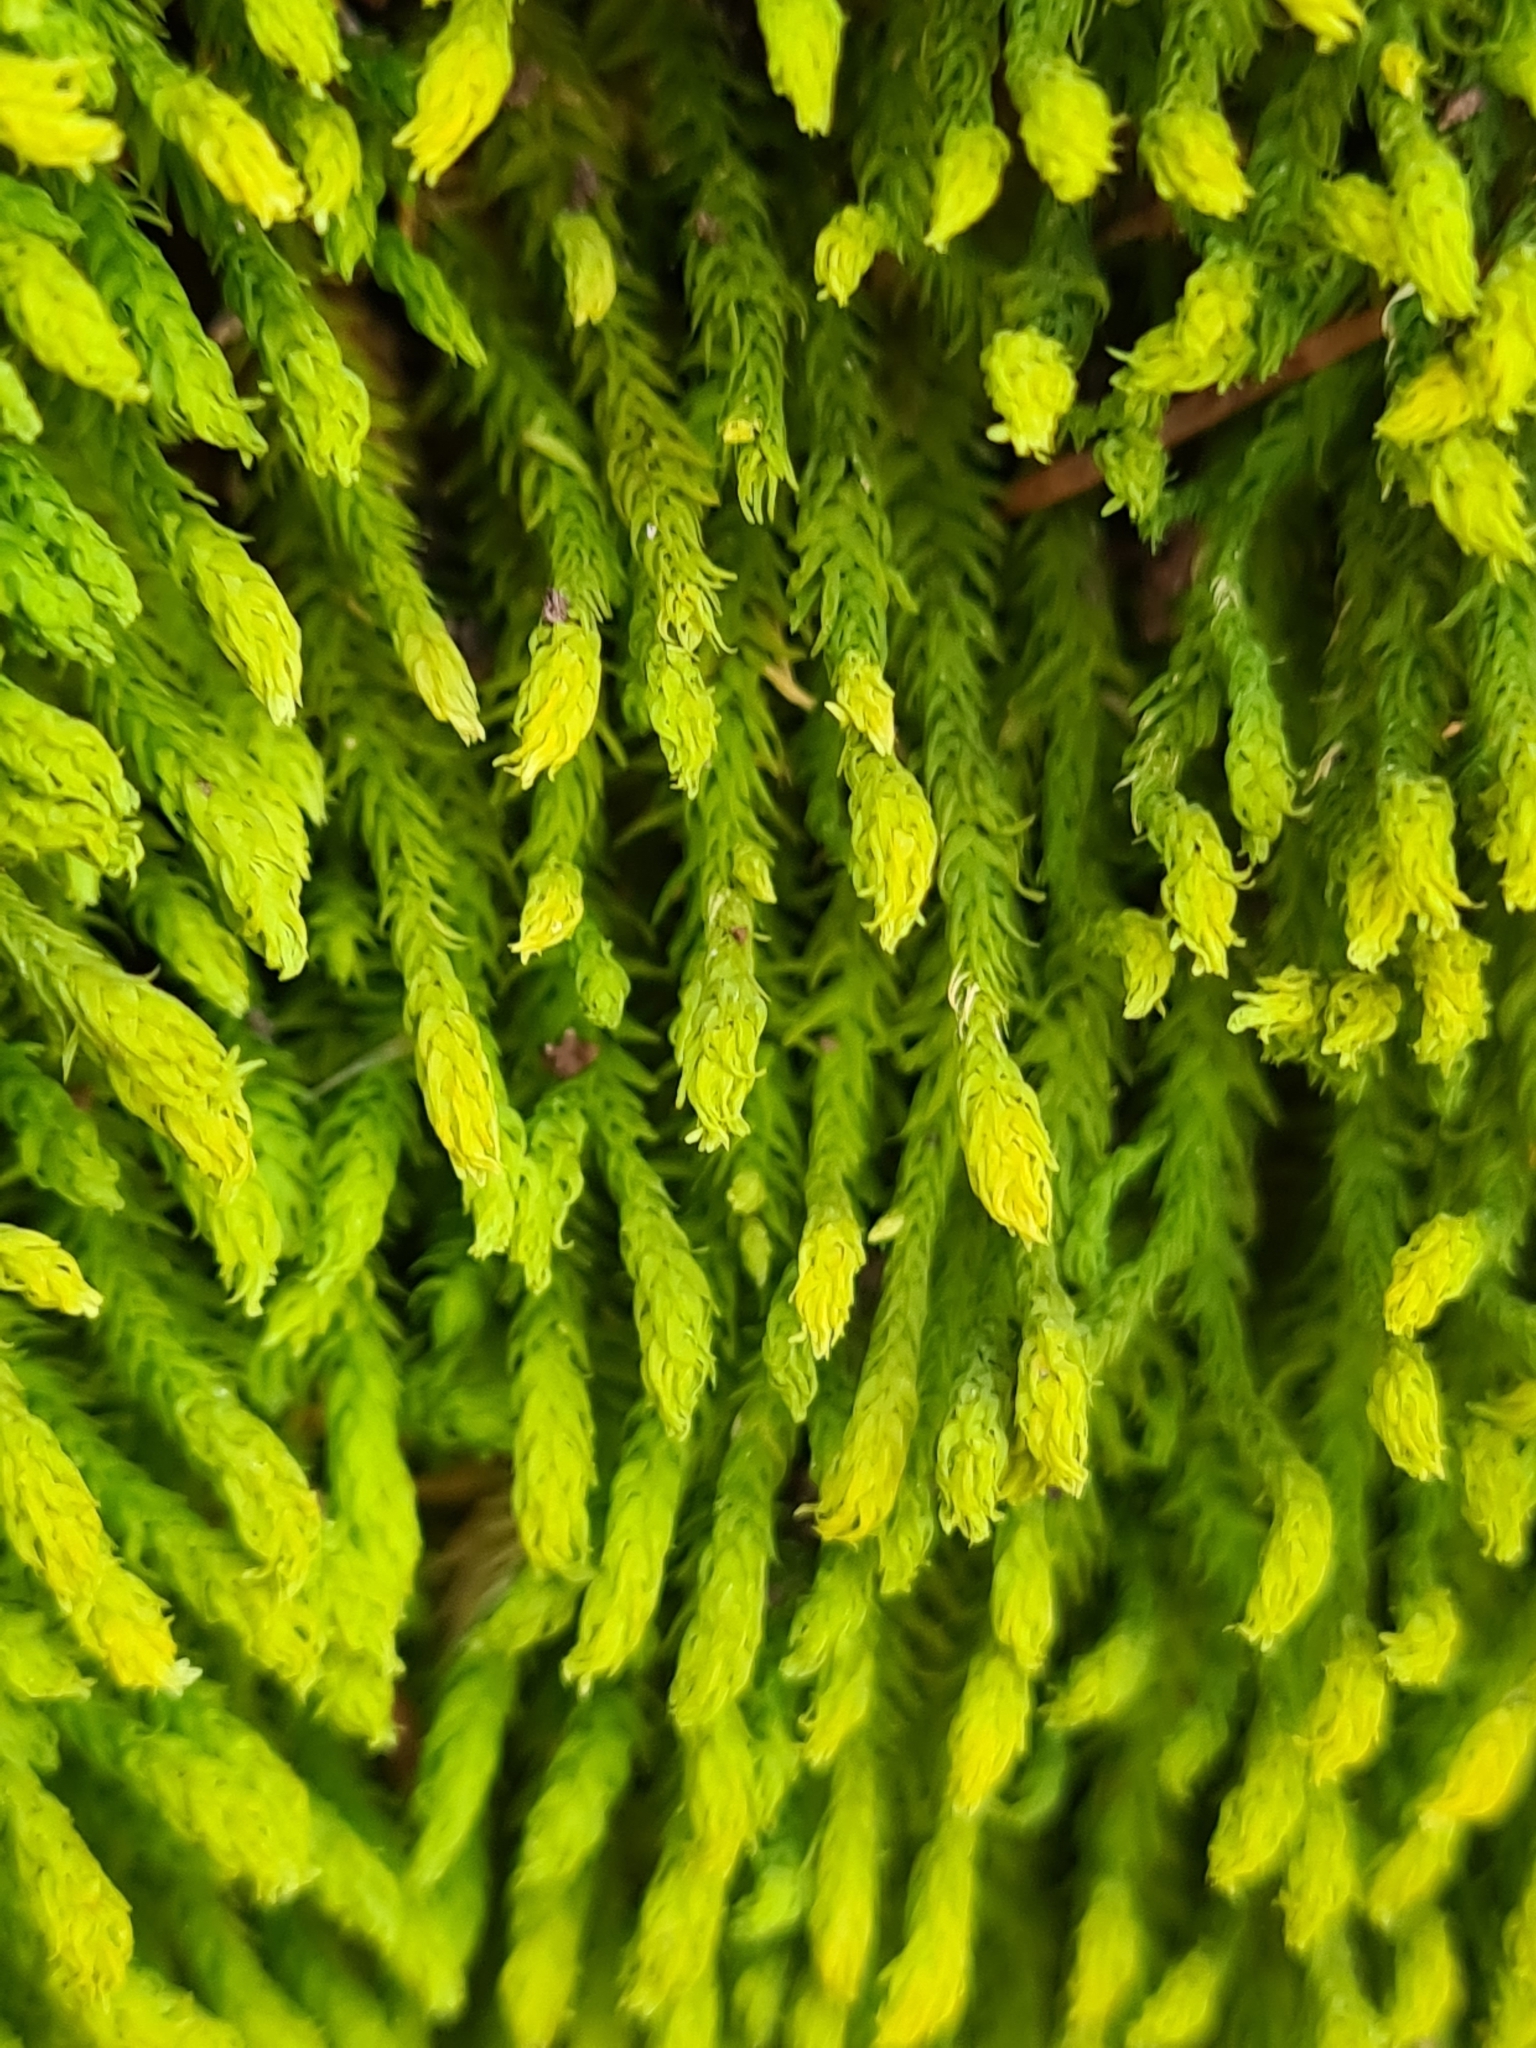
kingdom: Plantae
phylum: Bryophyta
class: Bryopsida
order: Hypnales
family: Anomodontaceae
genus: Anomodon
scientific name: Anomodon viticulosus
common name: Tall anomodon
